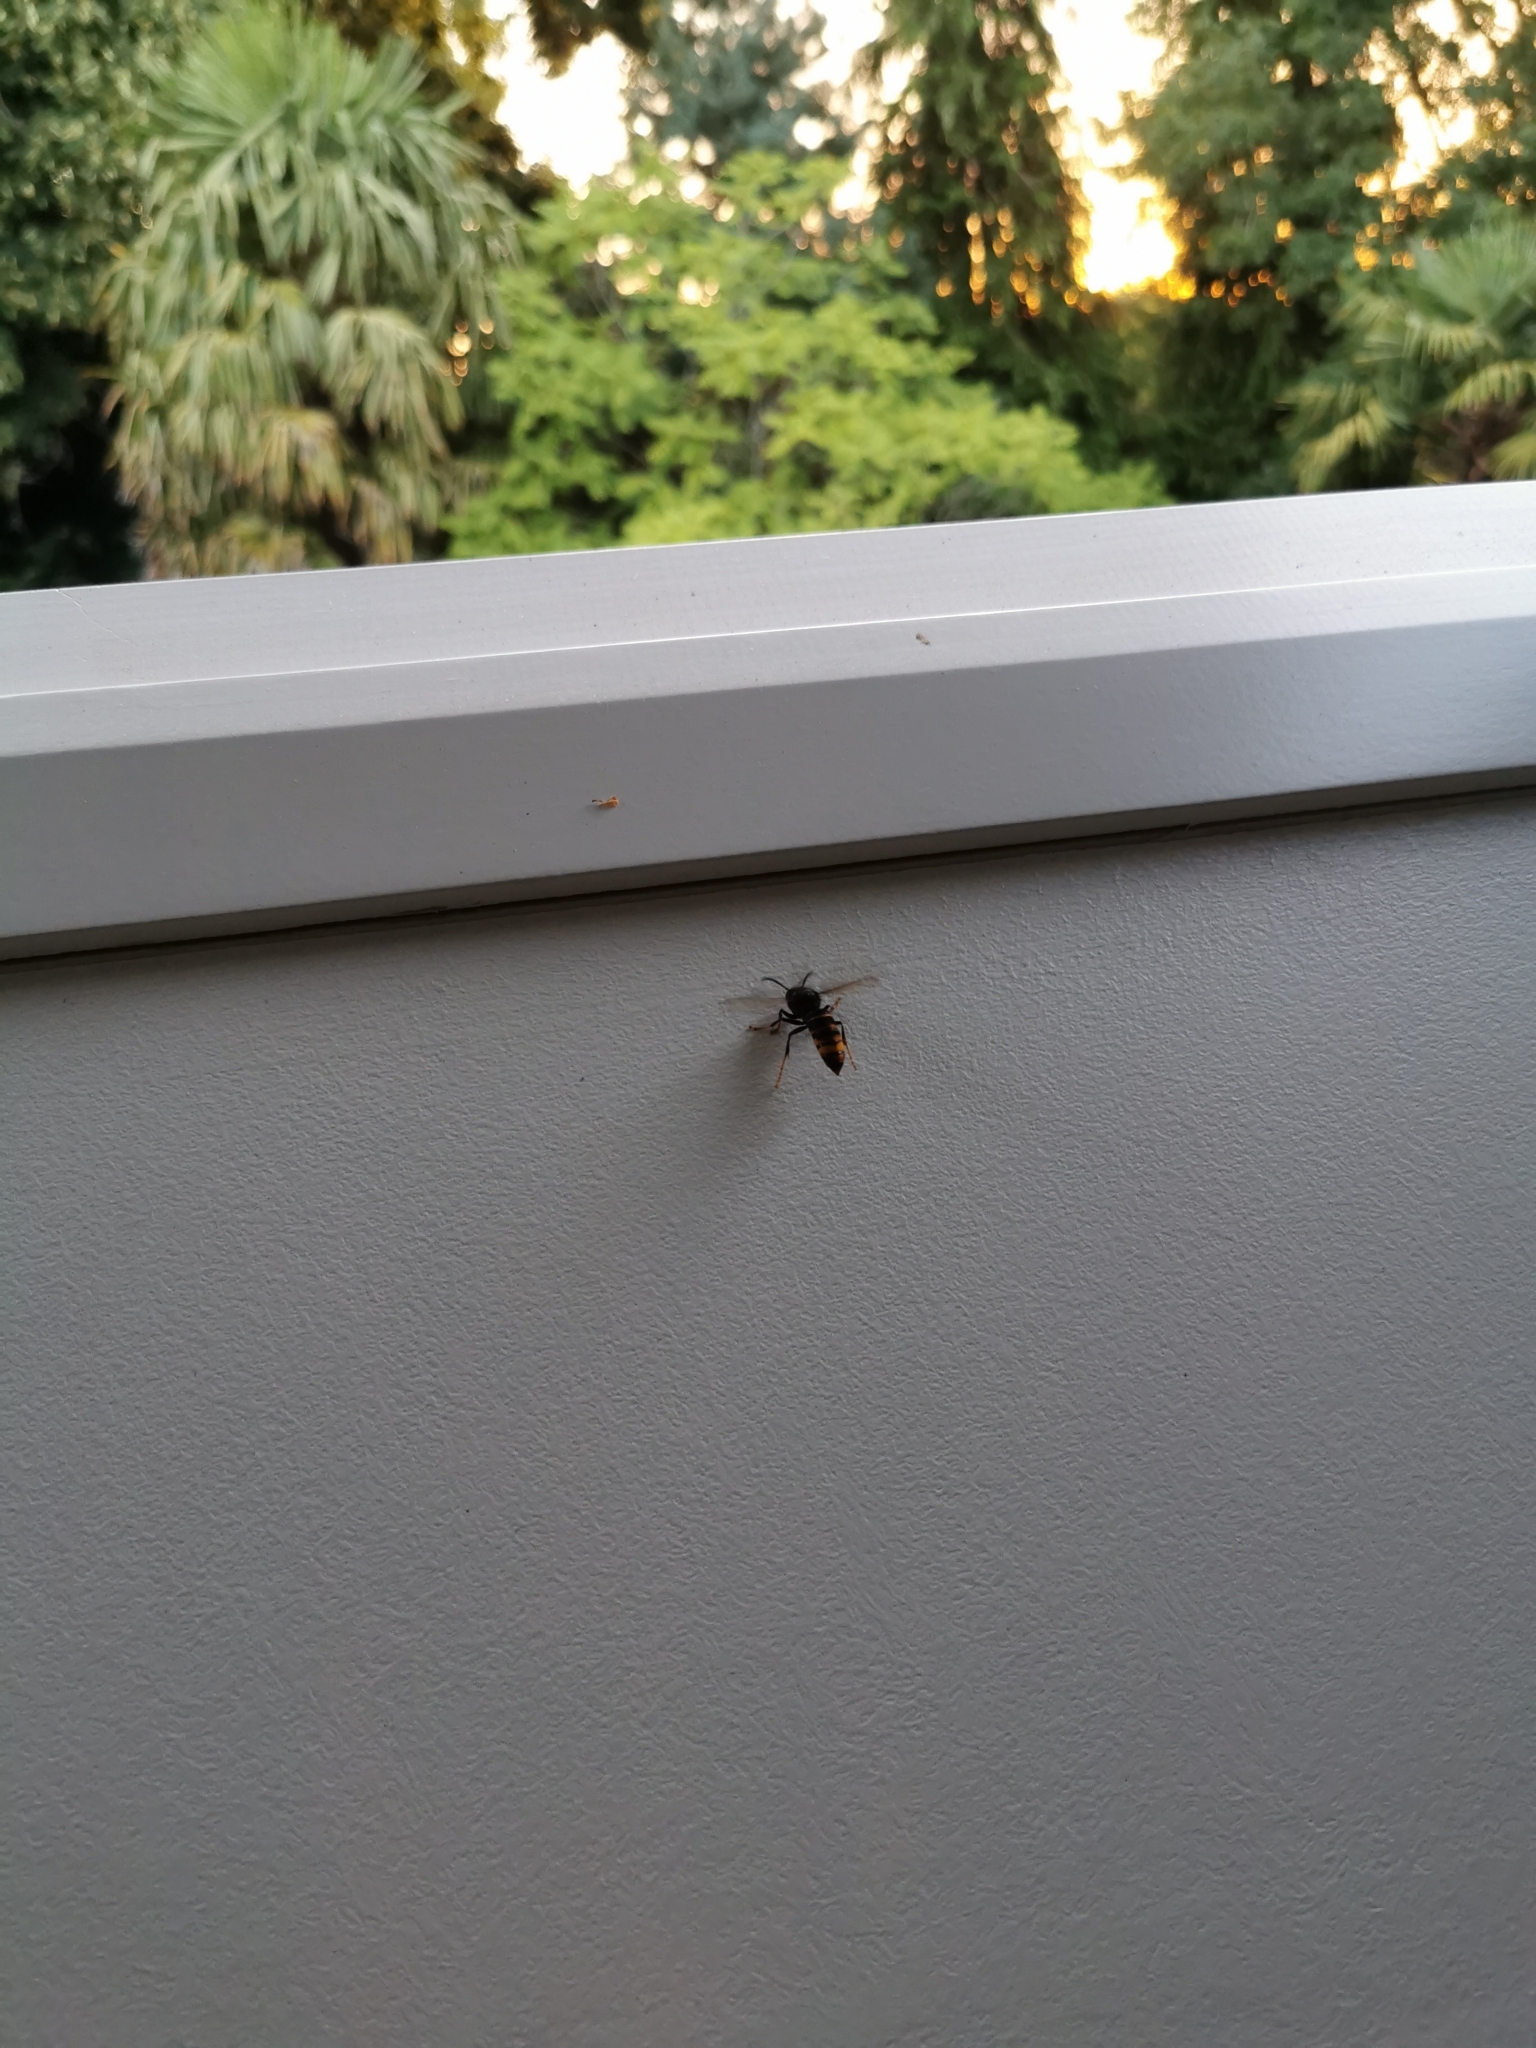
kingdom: Animalia
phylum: Arthropoda
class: Insecta
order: Hymenoptera
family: Vespidae
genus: Vespa
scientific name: Vespa velutina
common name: Asian hornet
